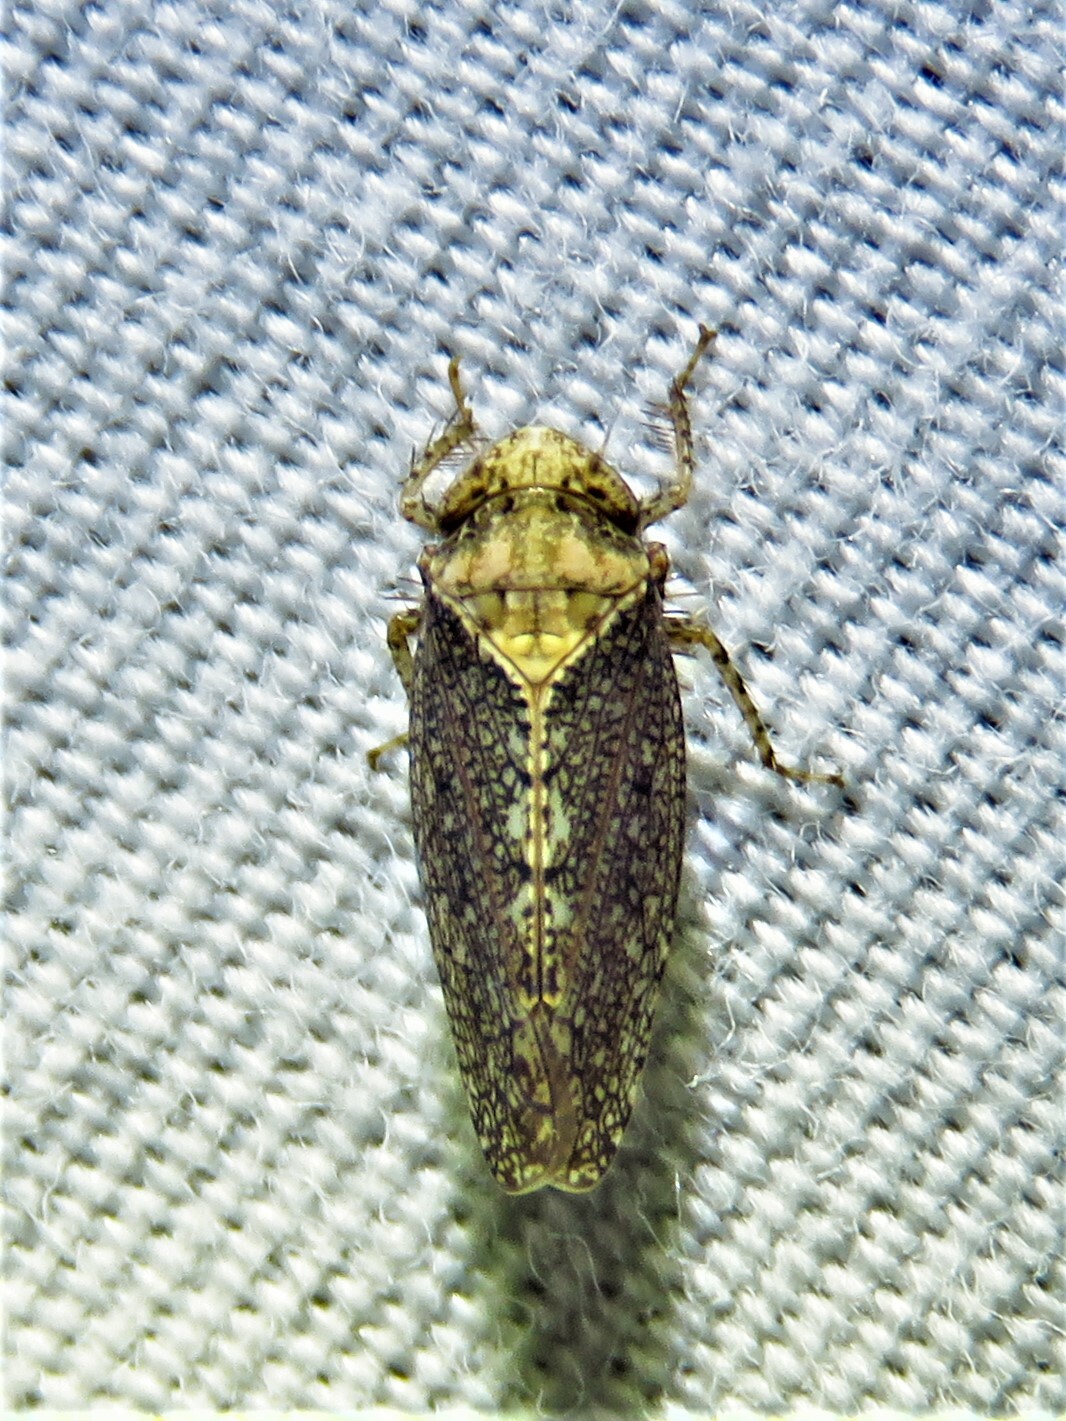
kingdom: Animalia
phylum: Arthropoda
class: Insecta
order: Hemiptera
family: Cicadellidae
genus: Excultanus
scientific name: Excultanus excultus
